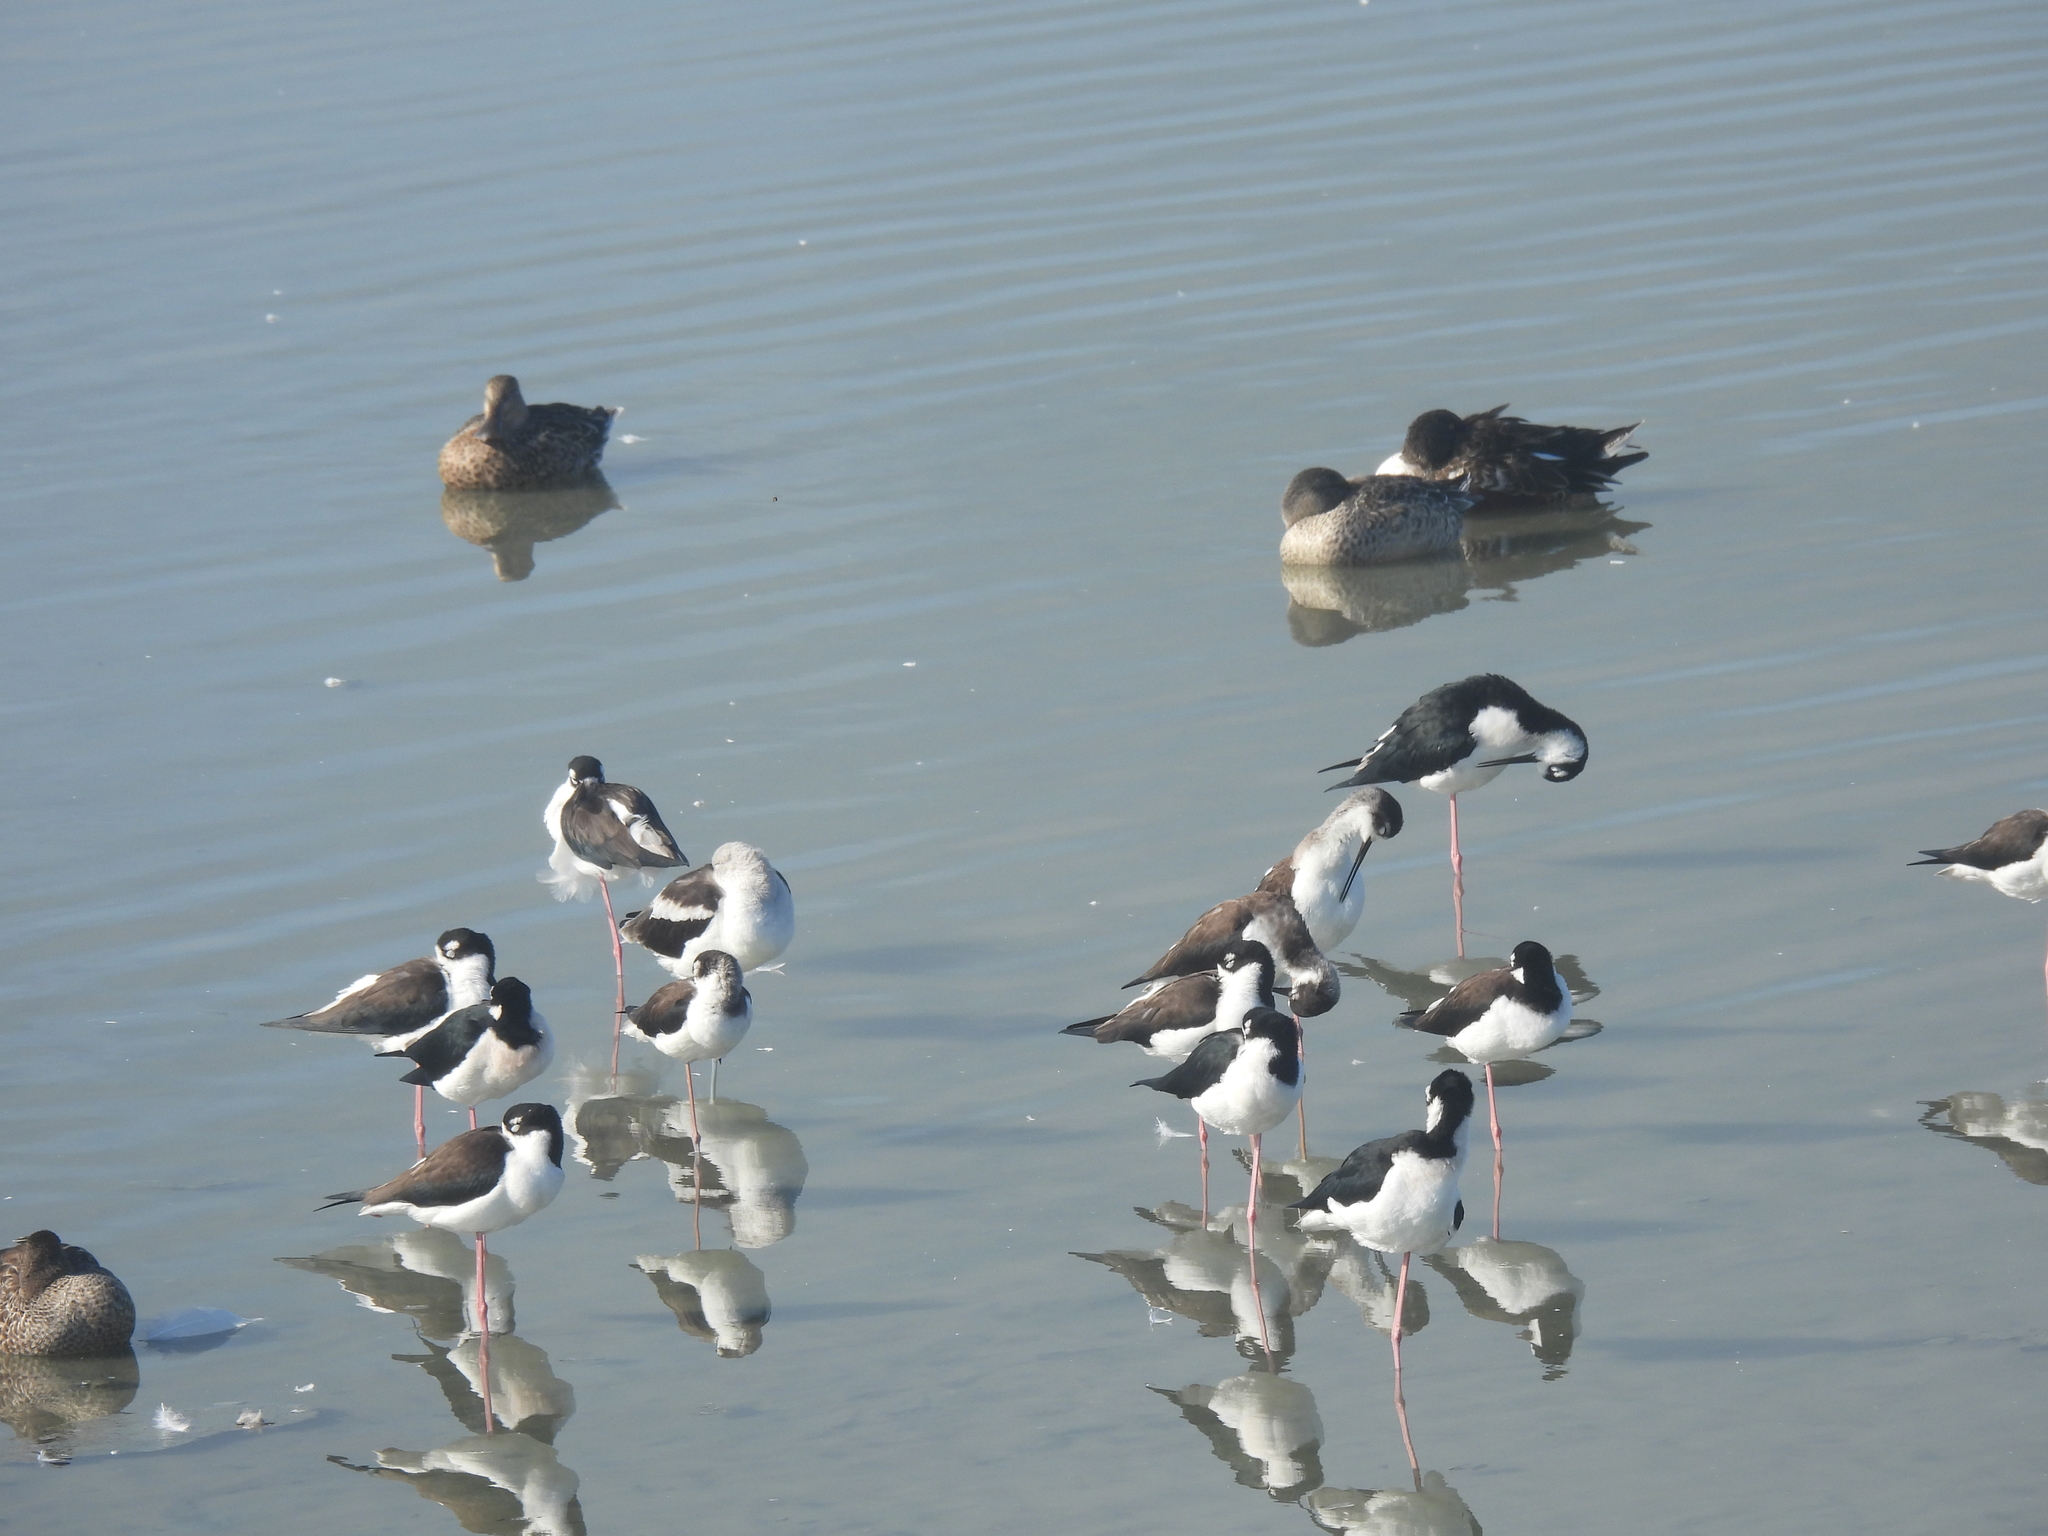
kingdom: Animalia
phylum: Chordata
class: Aves
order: Charadriiformes
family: Recurvirostridae
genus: Himantopus
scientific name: Himantopus mexicanus
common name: Black-necked stilt
